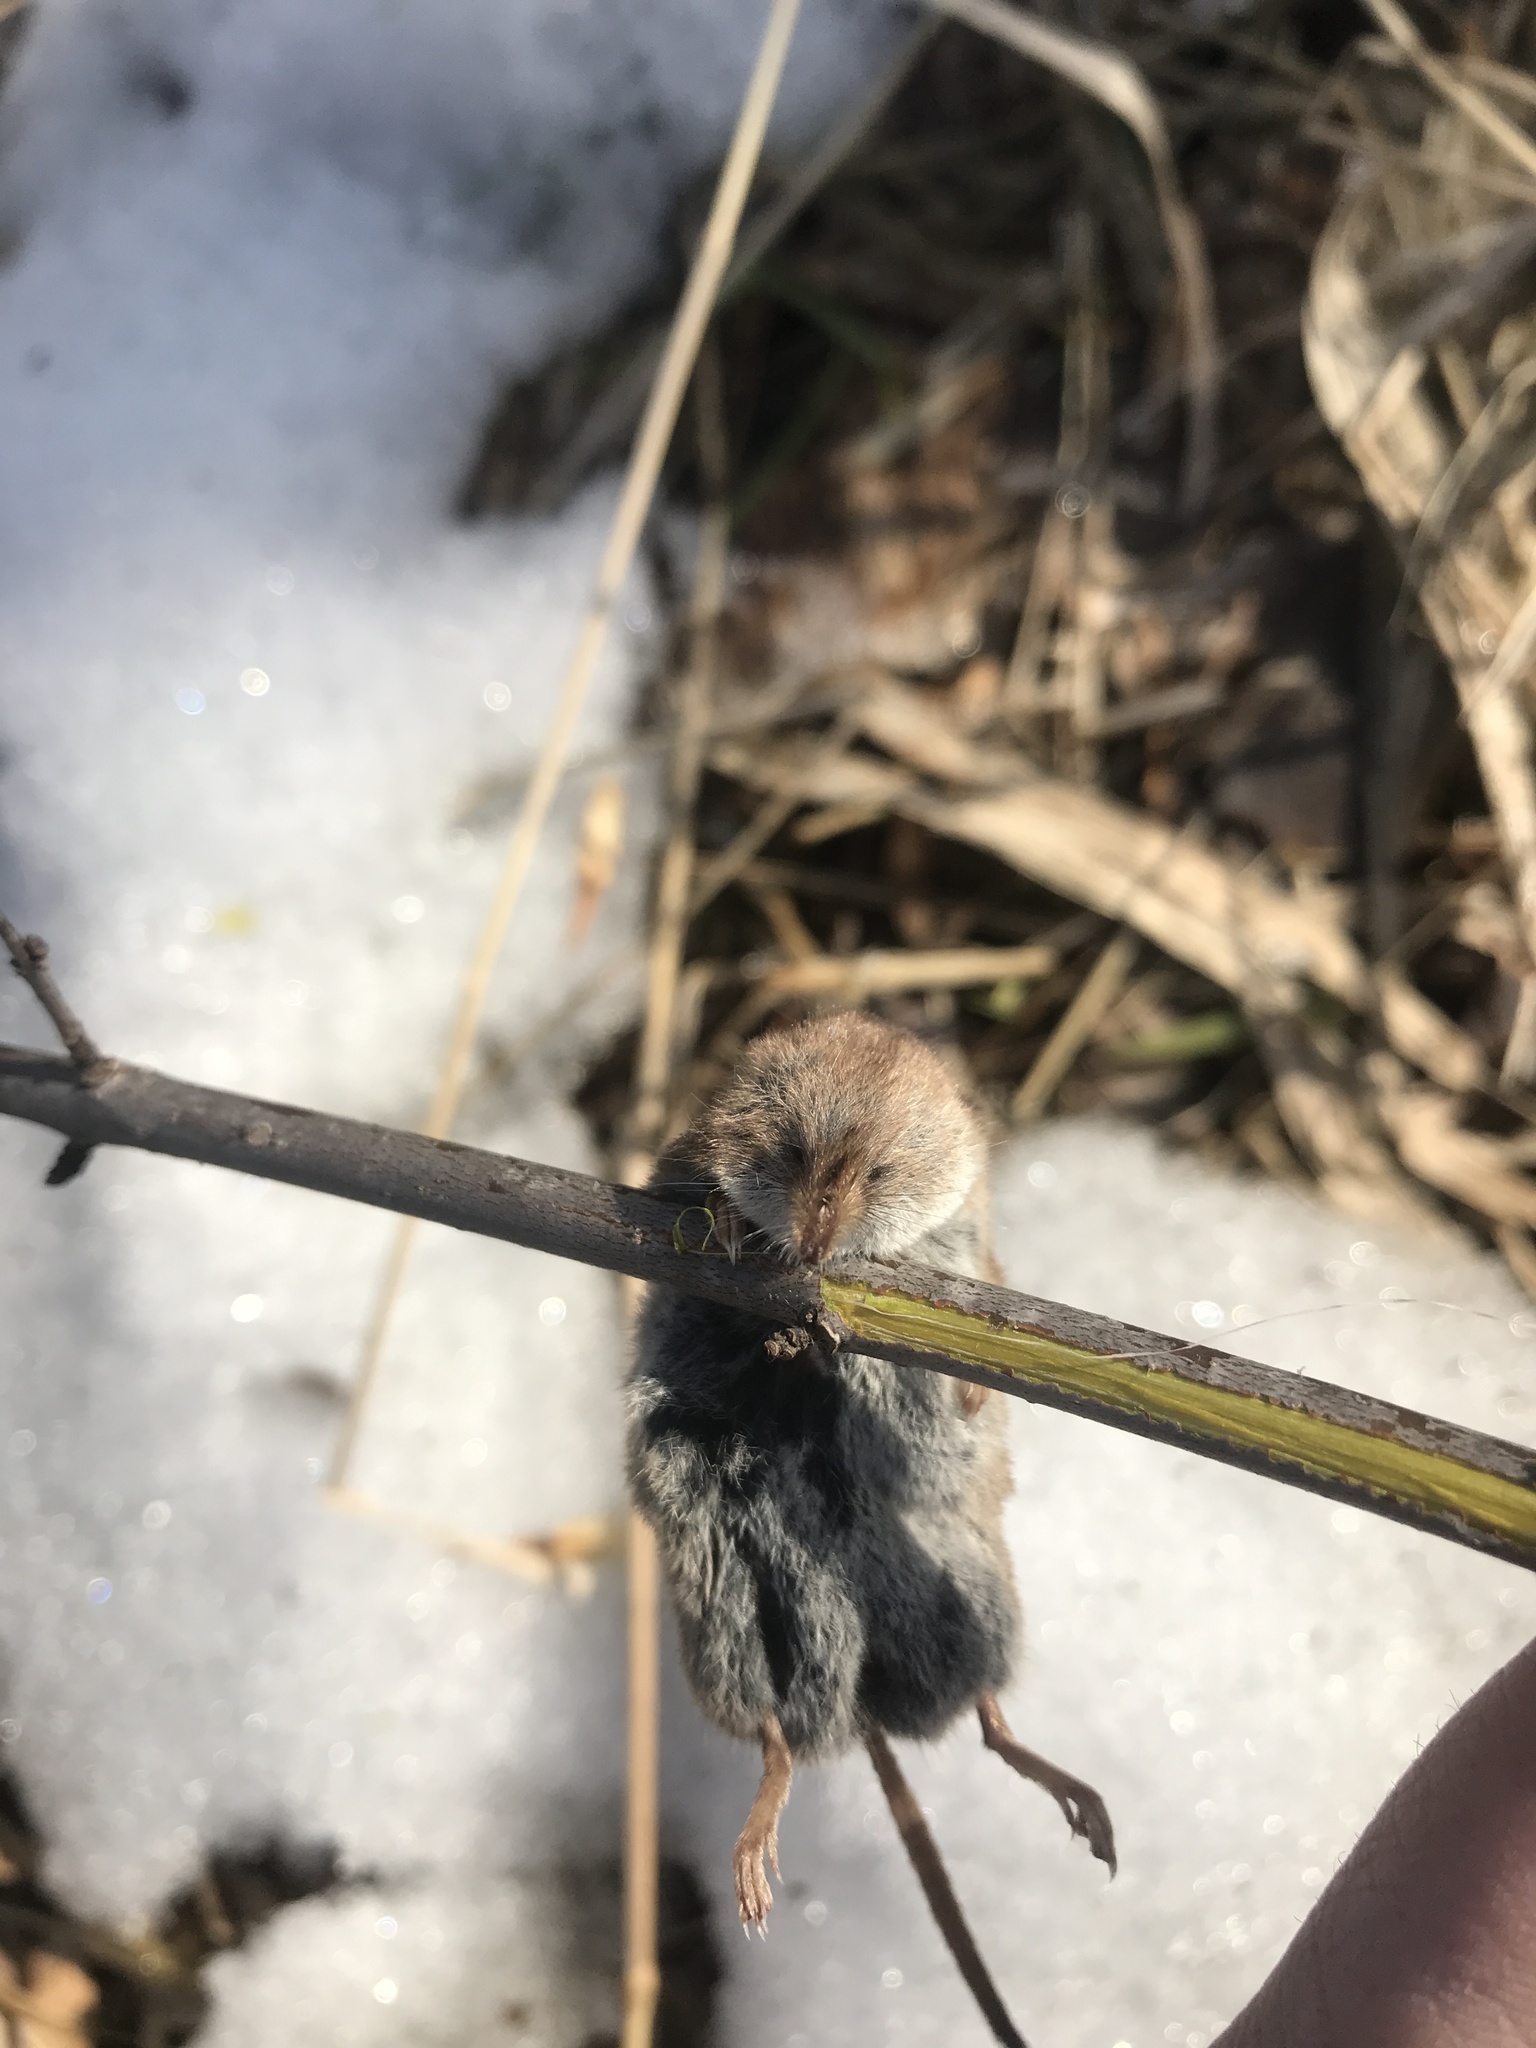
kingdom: Animalia
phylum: Chordata
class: Mammalia
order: Soricomorpha
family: Soricidae
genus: Sorex
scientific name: Sorex cinereus
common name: Cinereus shrew
